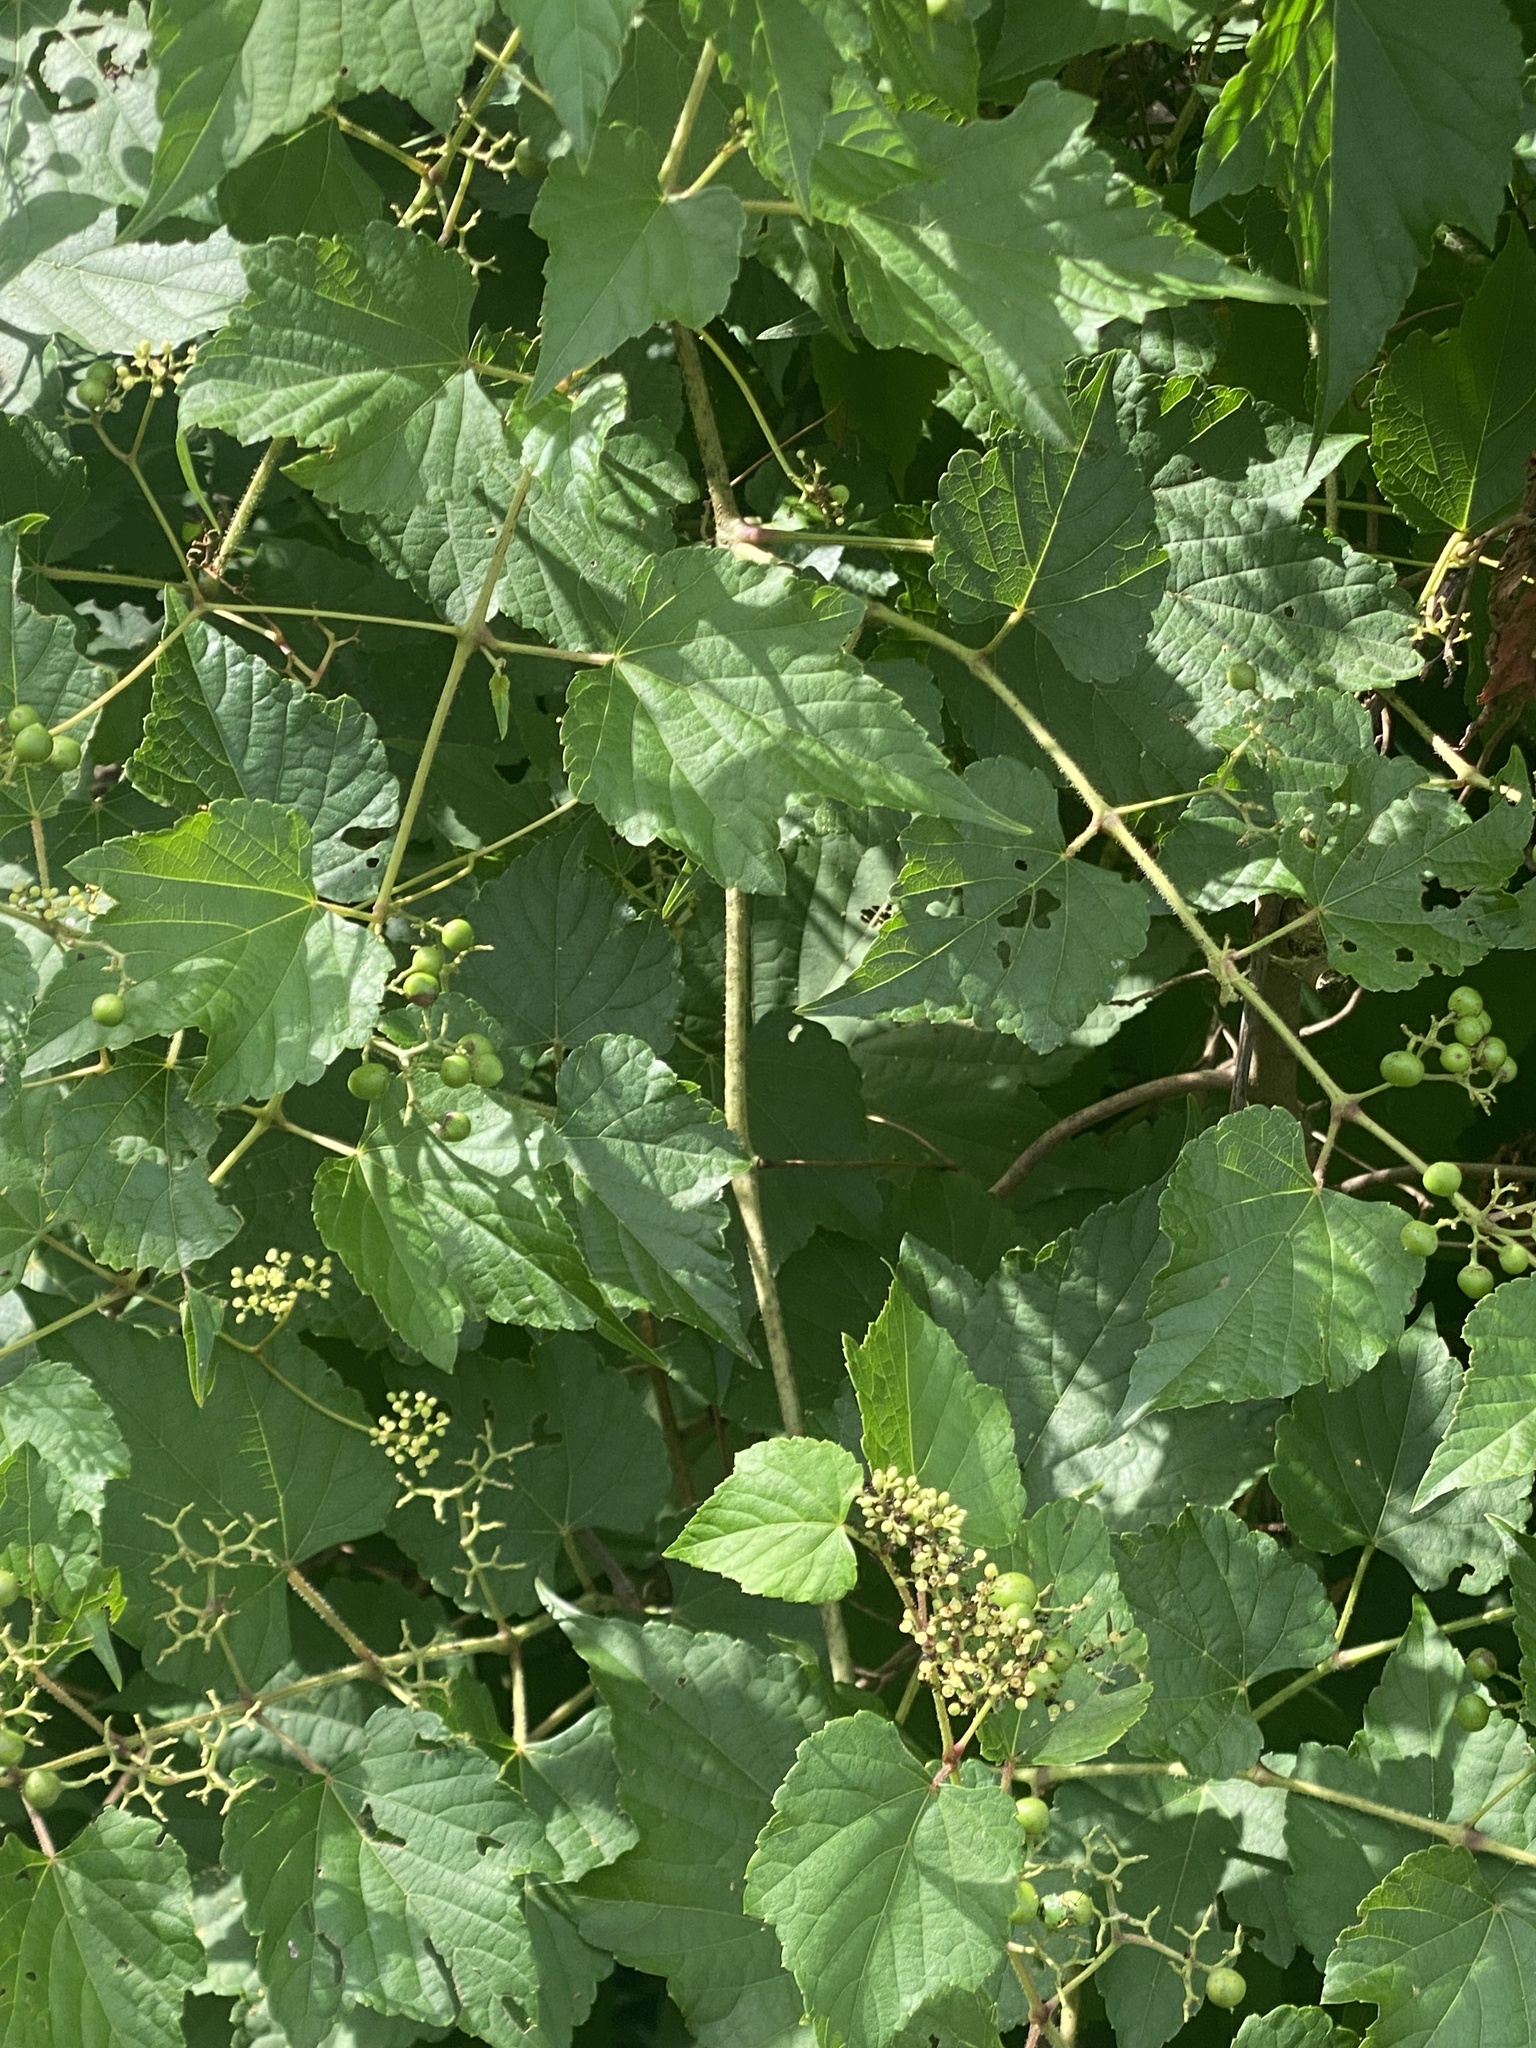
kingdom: Plantae
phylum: Tracheophyta
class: Magnoliopsida
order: Vitales
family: Vitaceae
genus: Ampelopsis
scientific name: Ampelopsis glandulosa
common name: Amur peppervine
